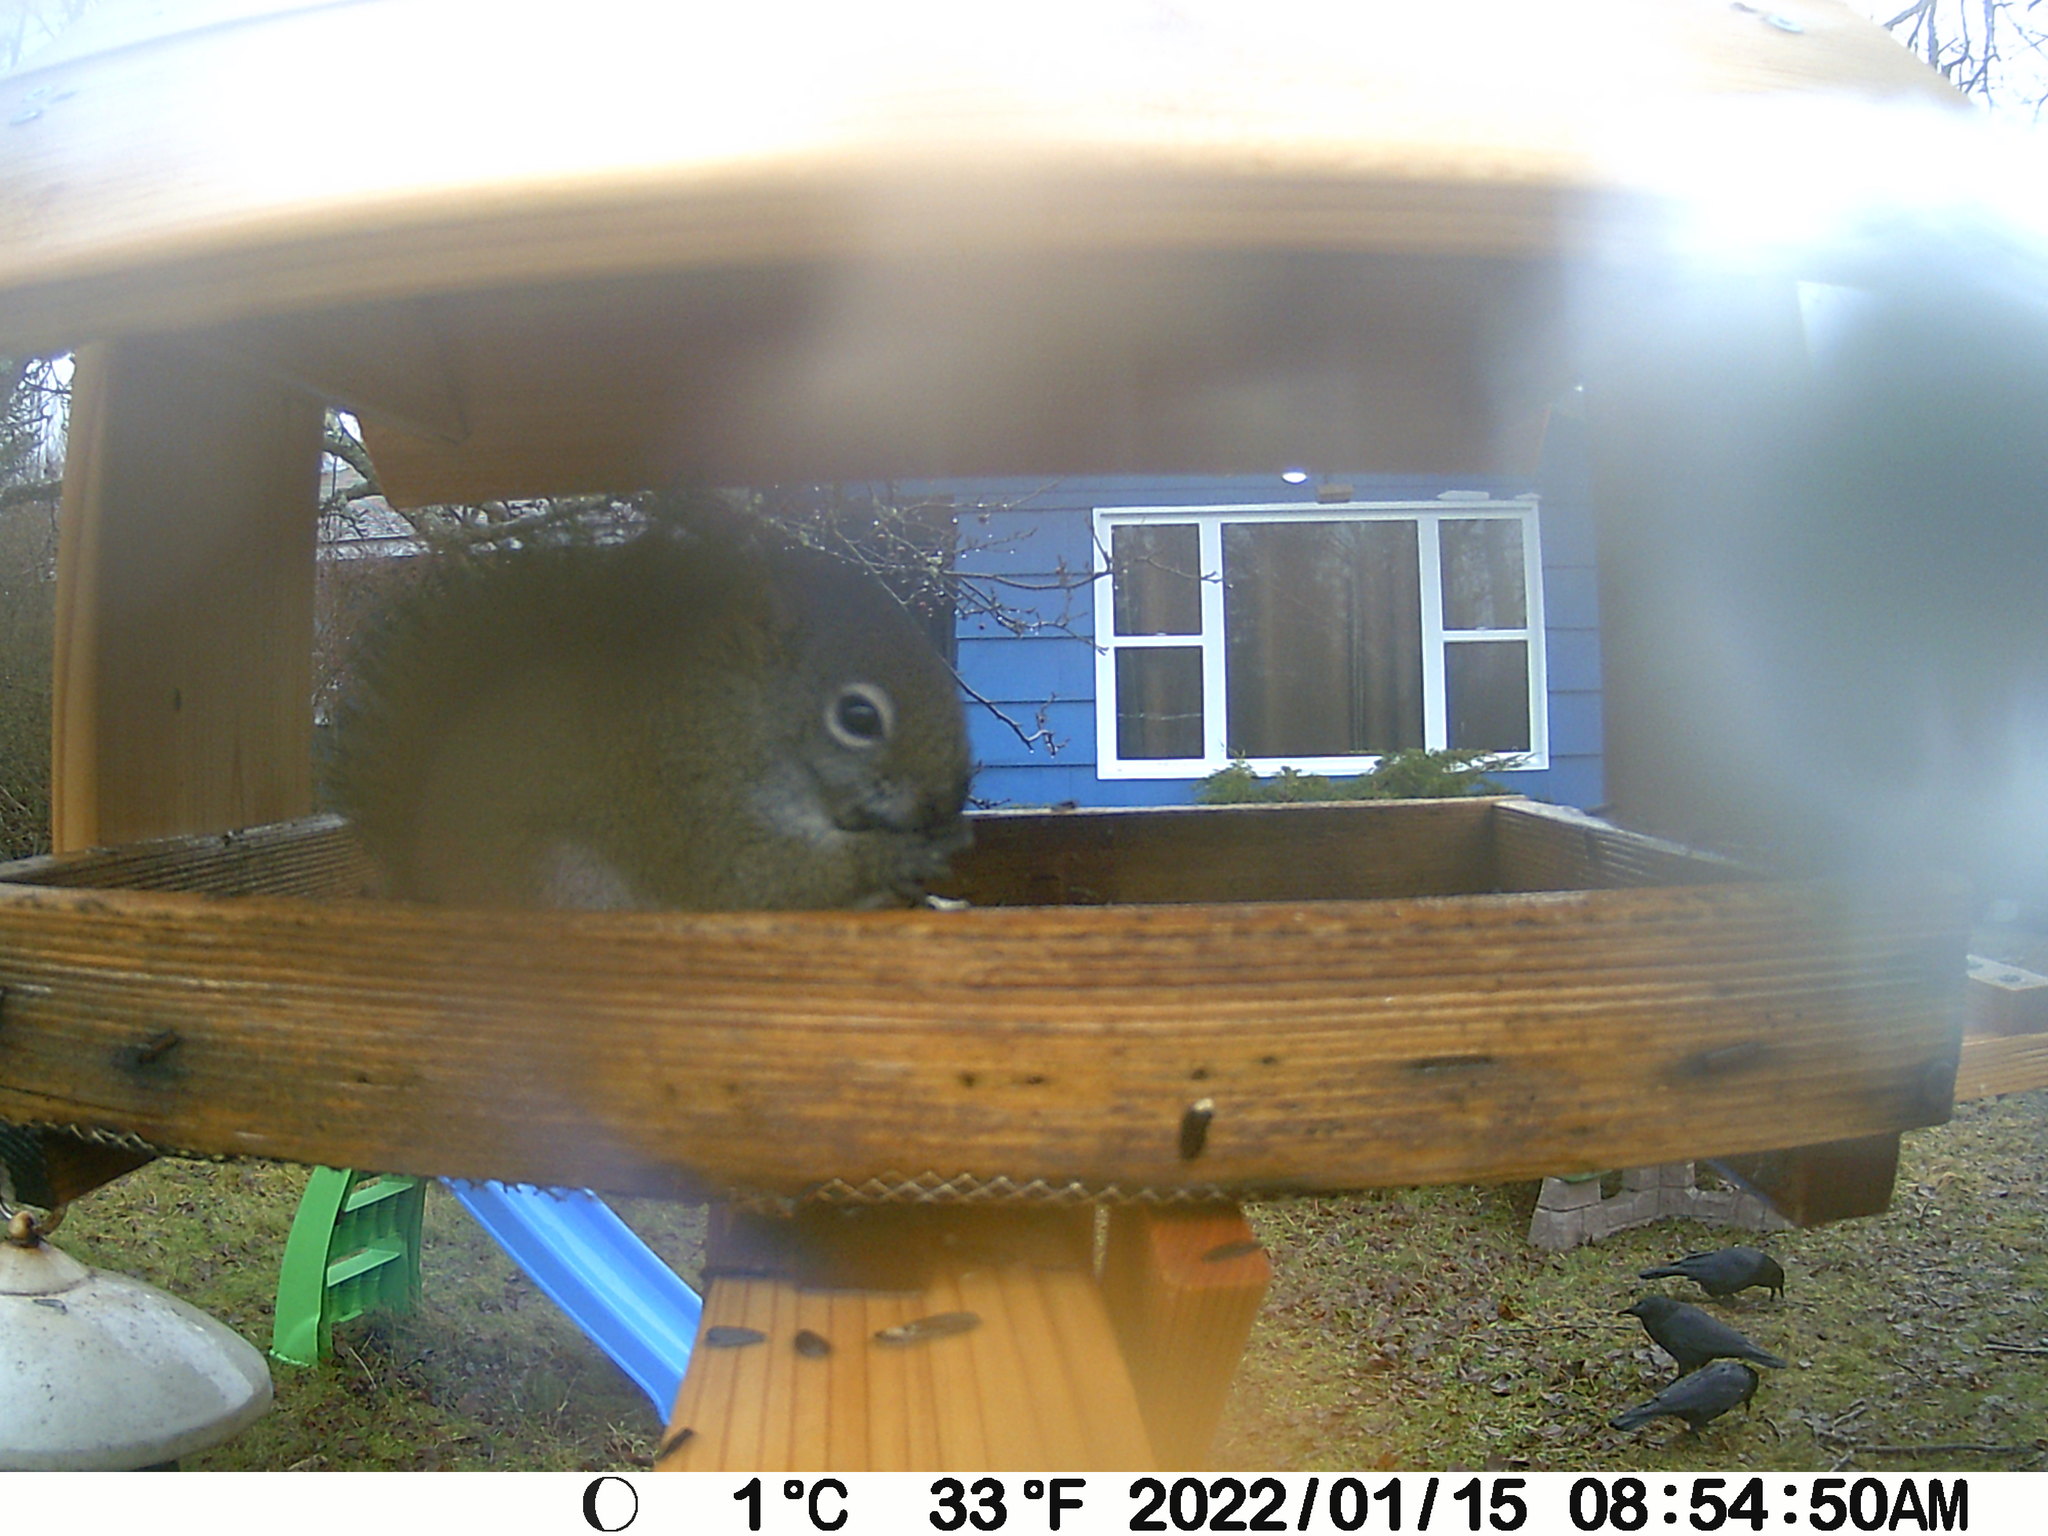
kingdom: Animalia
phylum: Chordata
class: Aves
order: Passeriformes
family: Corvidae
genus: Corvus
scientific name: Corvus brachyrhynchos
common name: American crow
